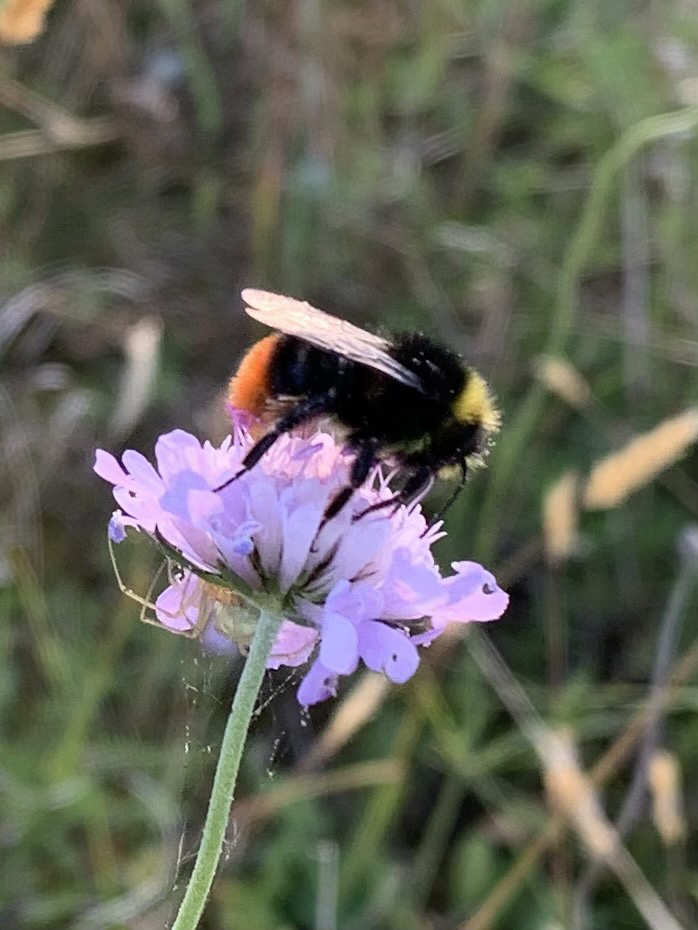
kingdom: Animalia
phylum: Arthropoda
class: Insecta
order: Hymenoptera
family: Apidae
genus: Bombus
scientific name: Bombus lapidarius
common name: Large red-tailed humble-bee
